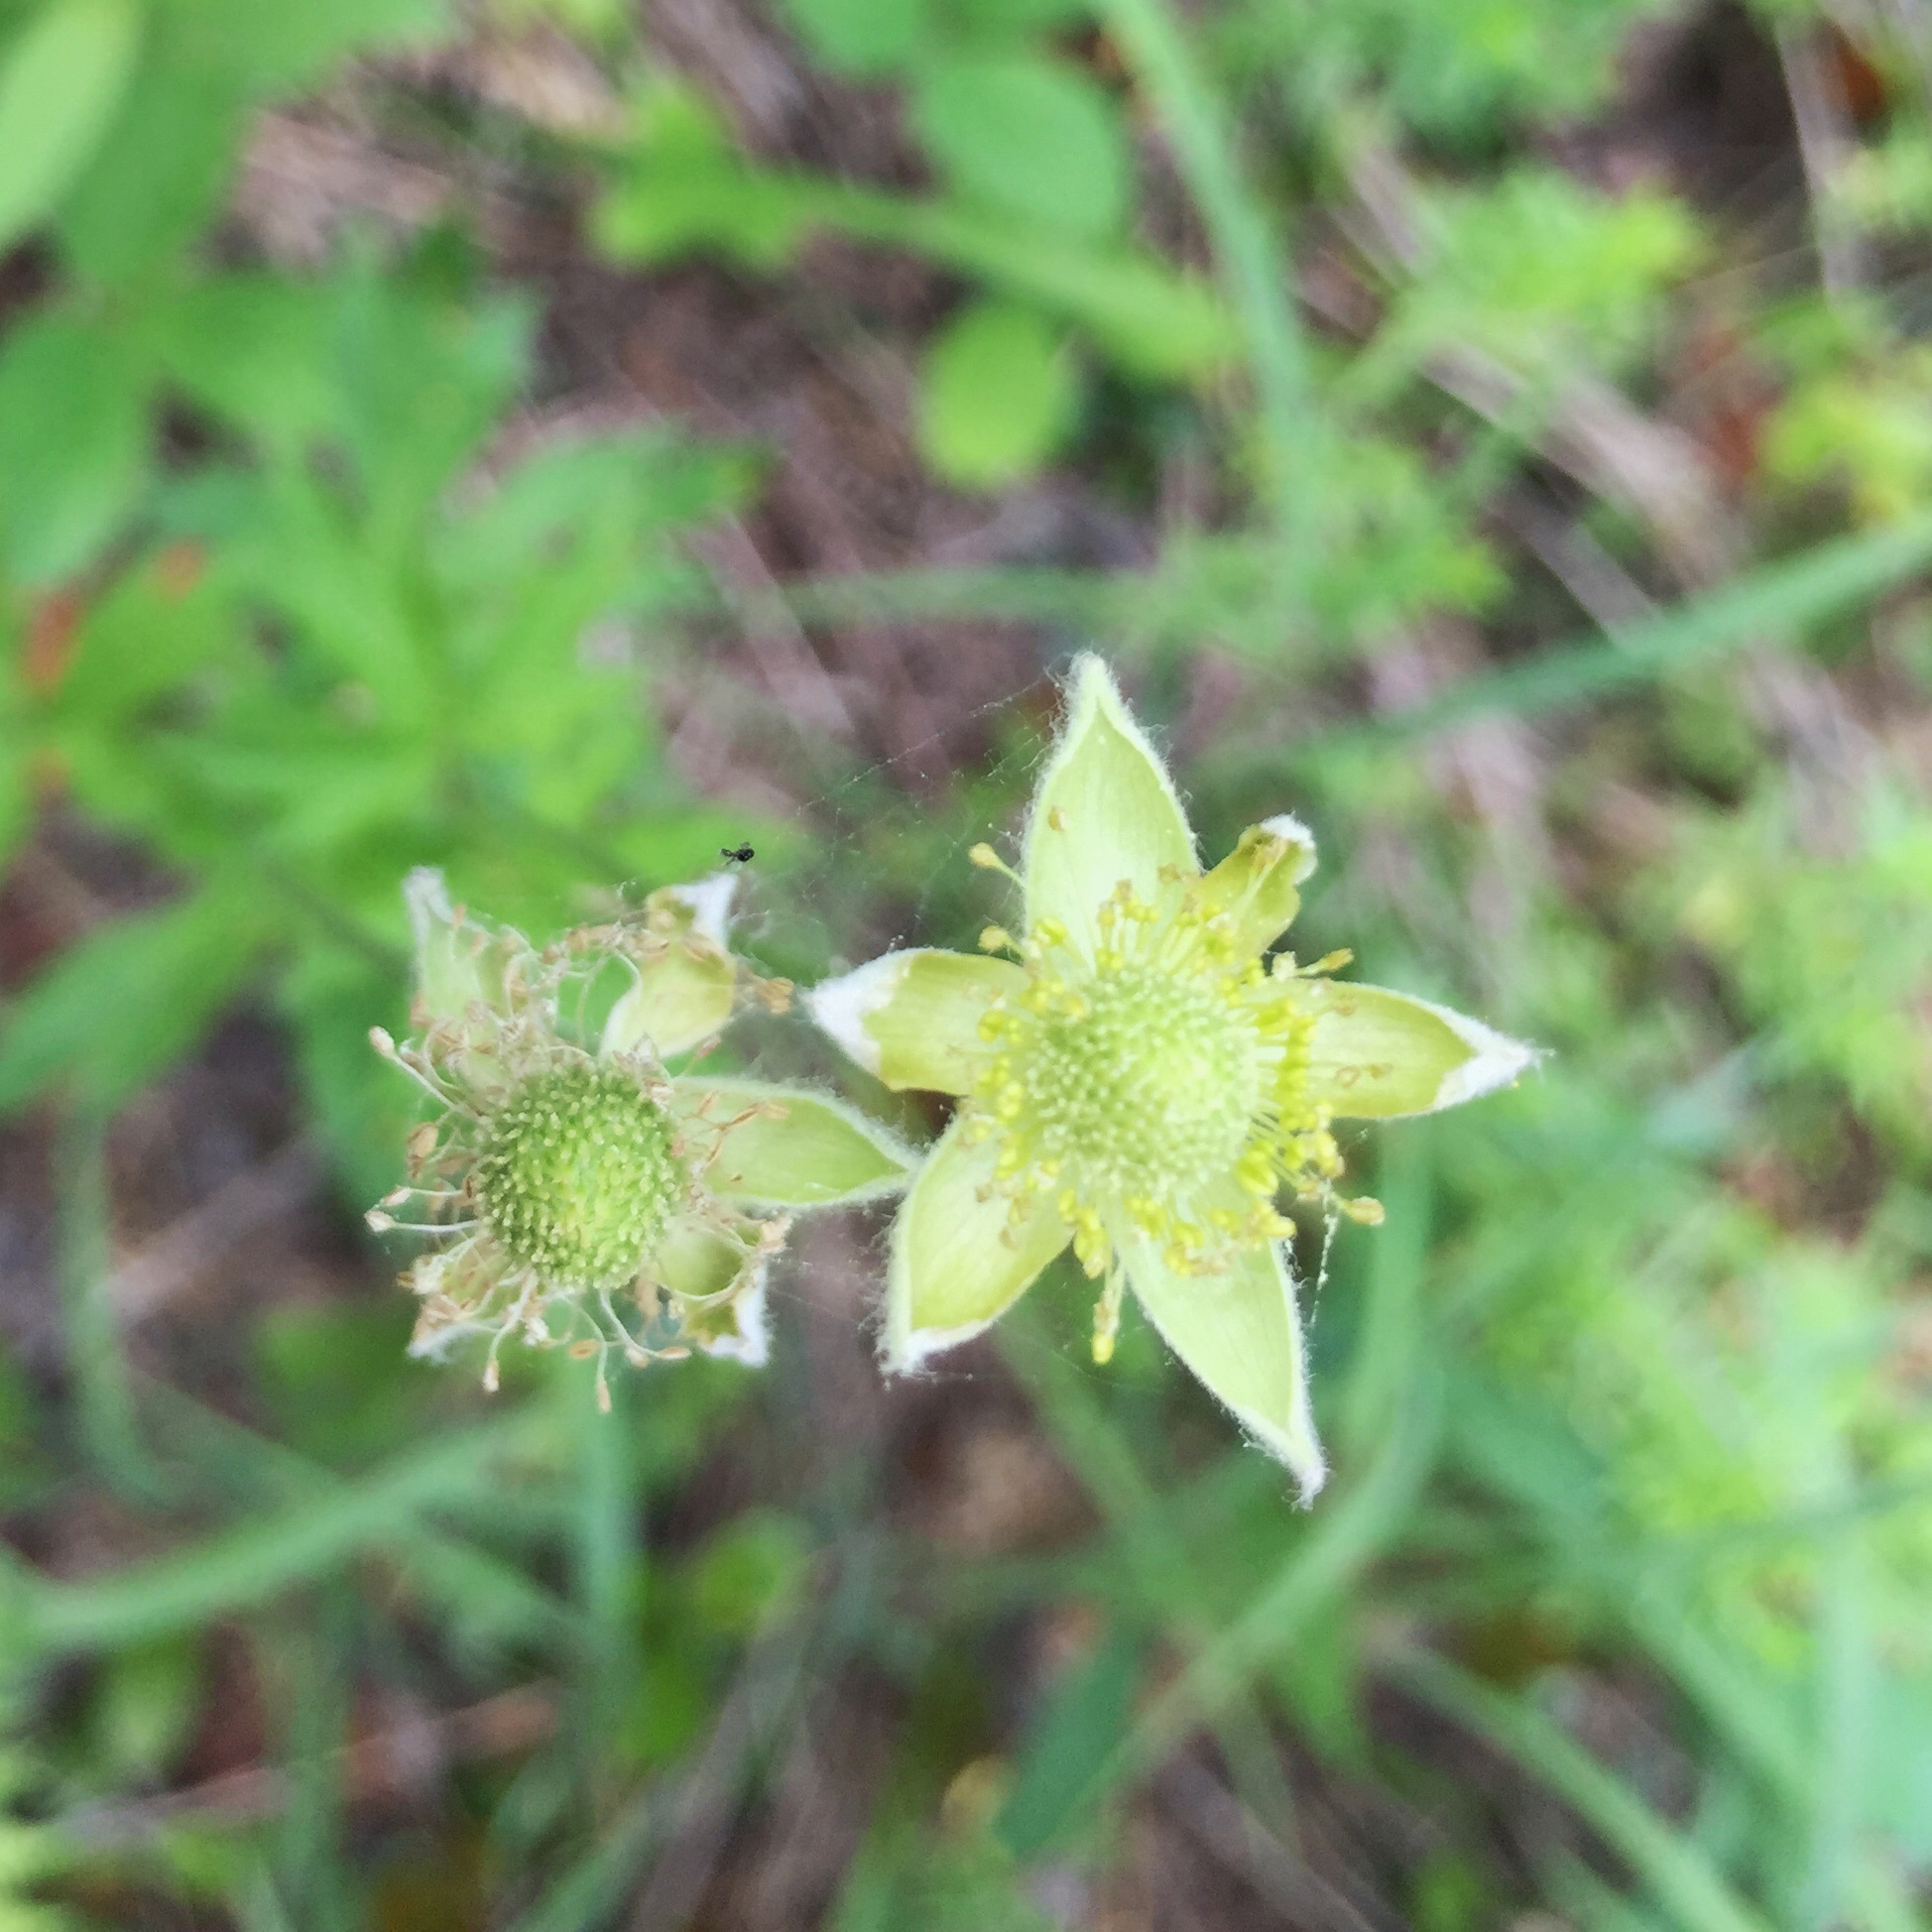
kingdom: Plantae
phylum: Tracheophyta
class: Magnoliopsida
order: Ranunculales
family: Ranunculaceae
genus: Anemone
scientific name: Anemone virginiana
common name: Tall anemone
